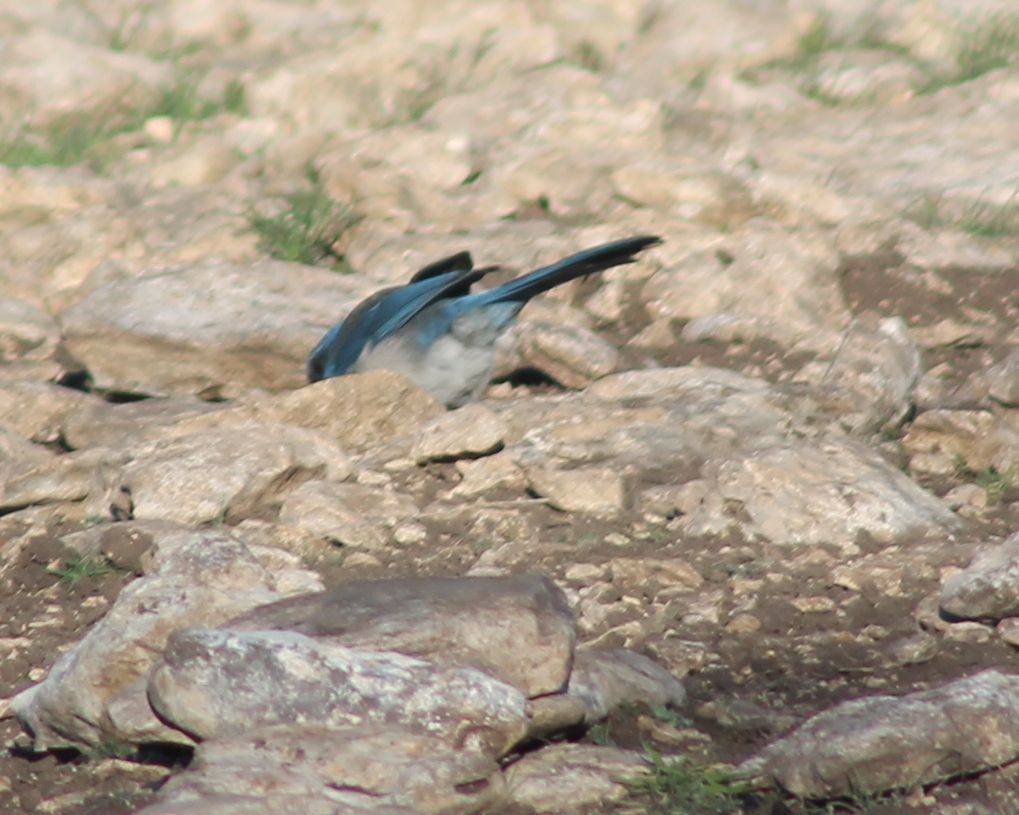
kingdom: Animalia
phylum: Chordata
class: Aves
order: Passeriformes
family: Corvidae
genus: Aphelocoma
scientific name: Aphelocoma woodhouseii
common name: Woodhouse's scrub-jay
